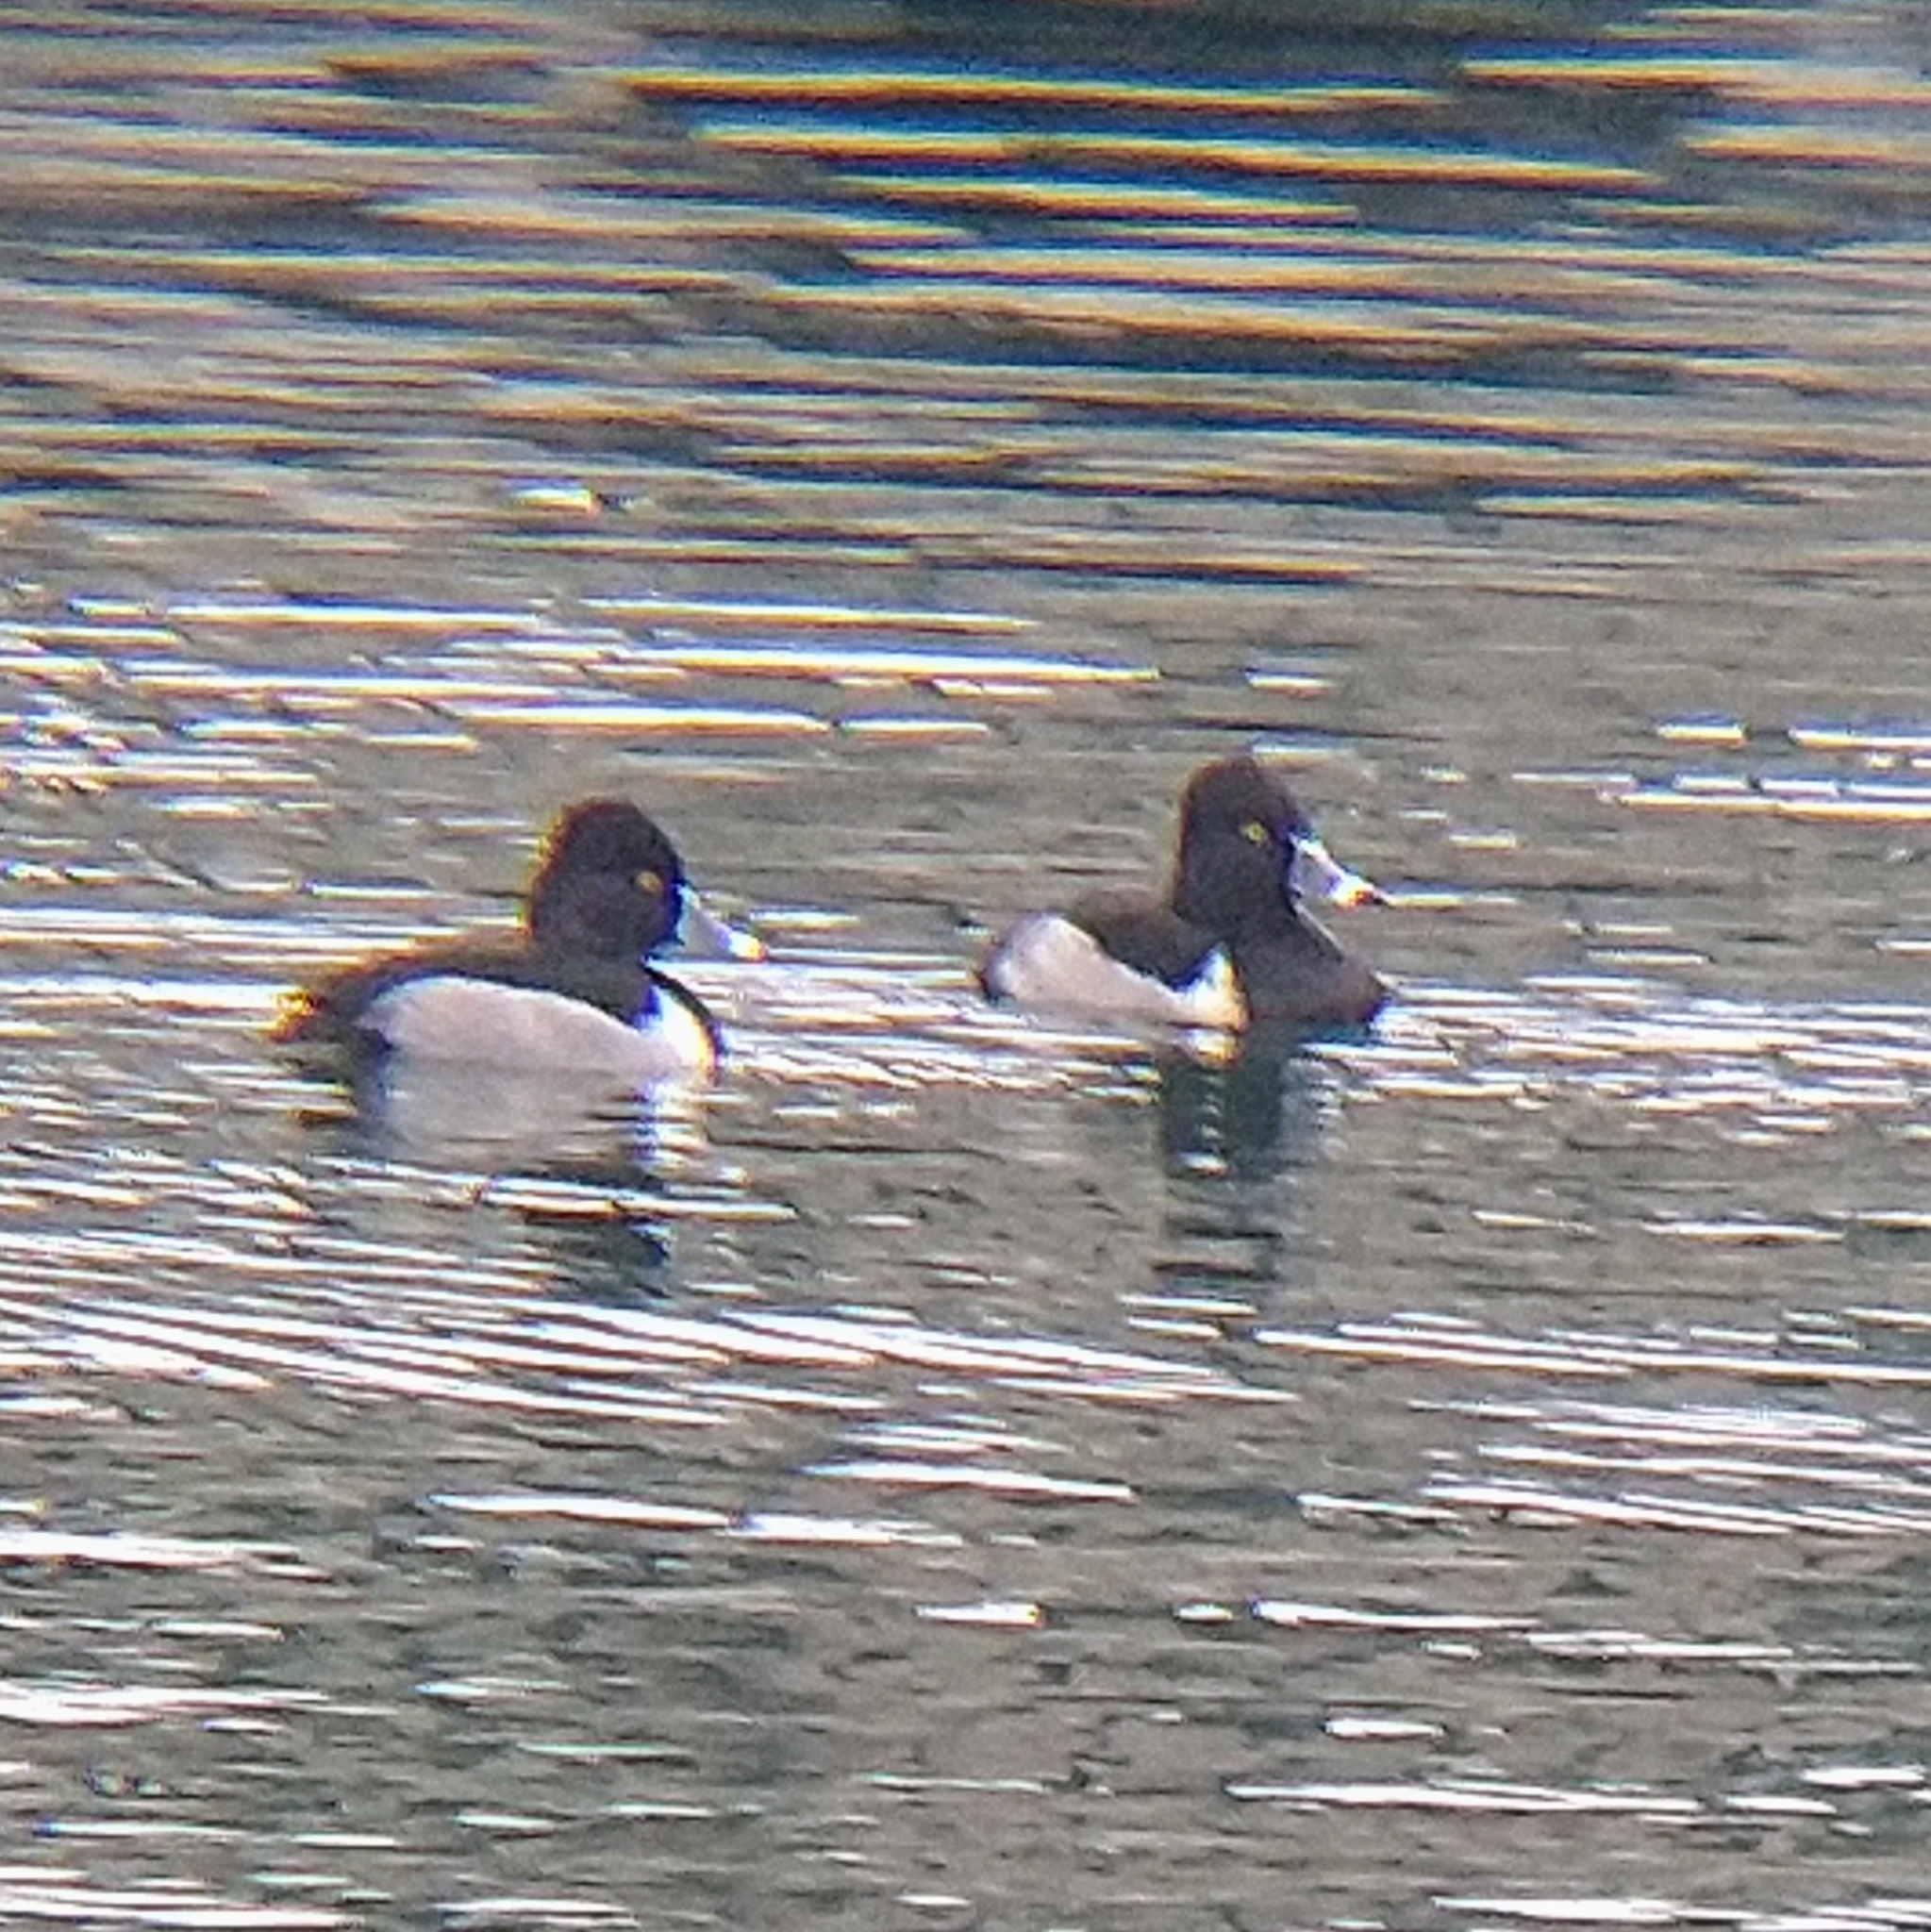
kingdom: Animalia
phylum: Chordata
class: Aves
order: Anseriformes
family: Anatidae
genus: Aythya
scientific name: Aythya collaris
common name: Ring-necked duck
